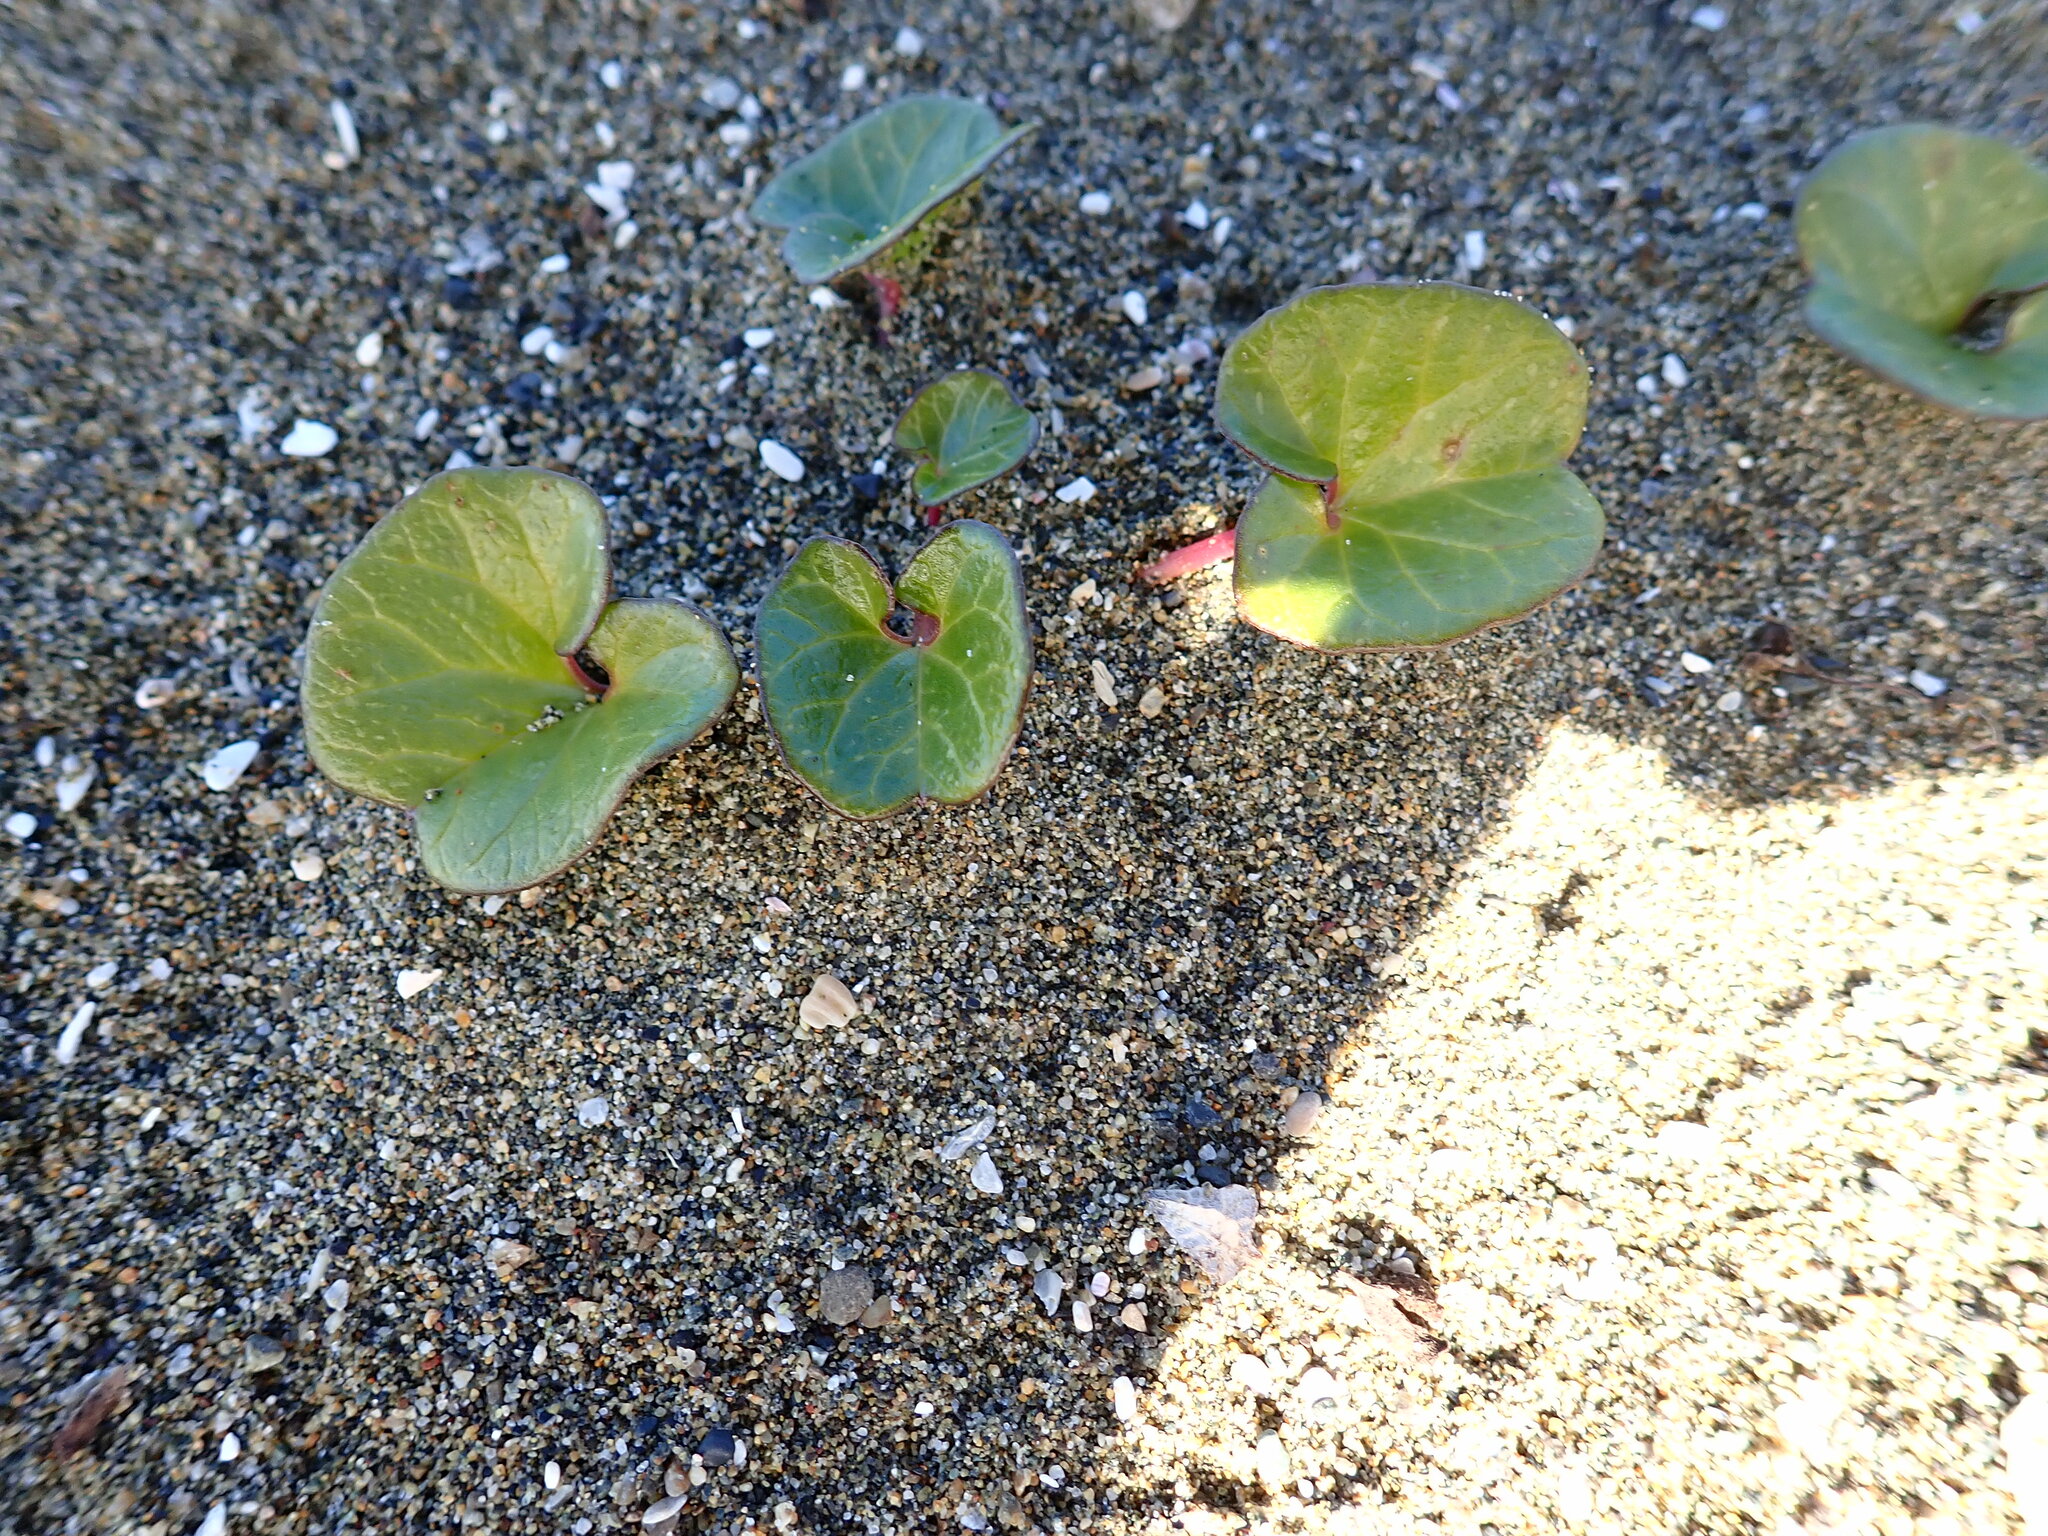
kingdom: Plantae
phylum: Tracheophyta
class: Magnoliopsida
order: Solanales
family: Convolvulaceae
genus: Calystegia
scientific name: Calystegia soldanella
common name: Sea bindweed
